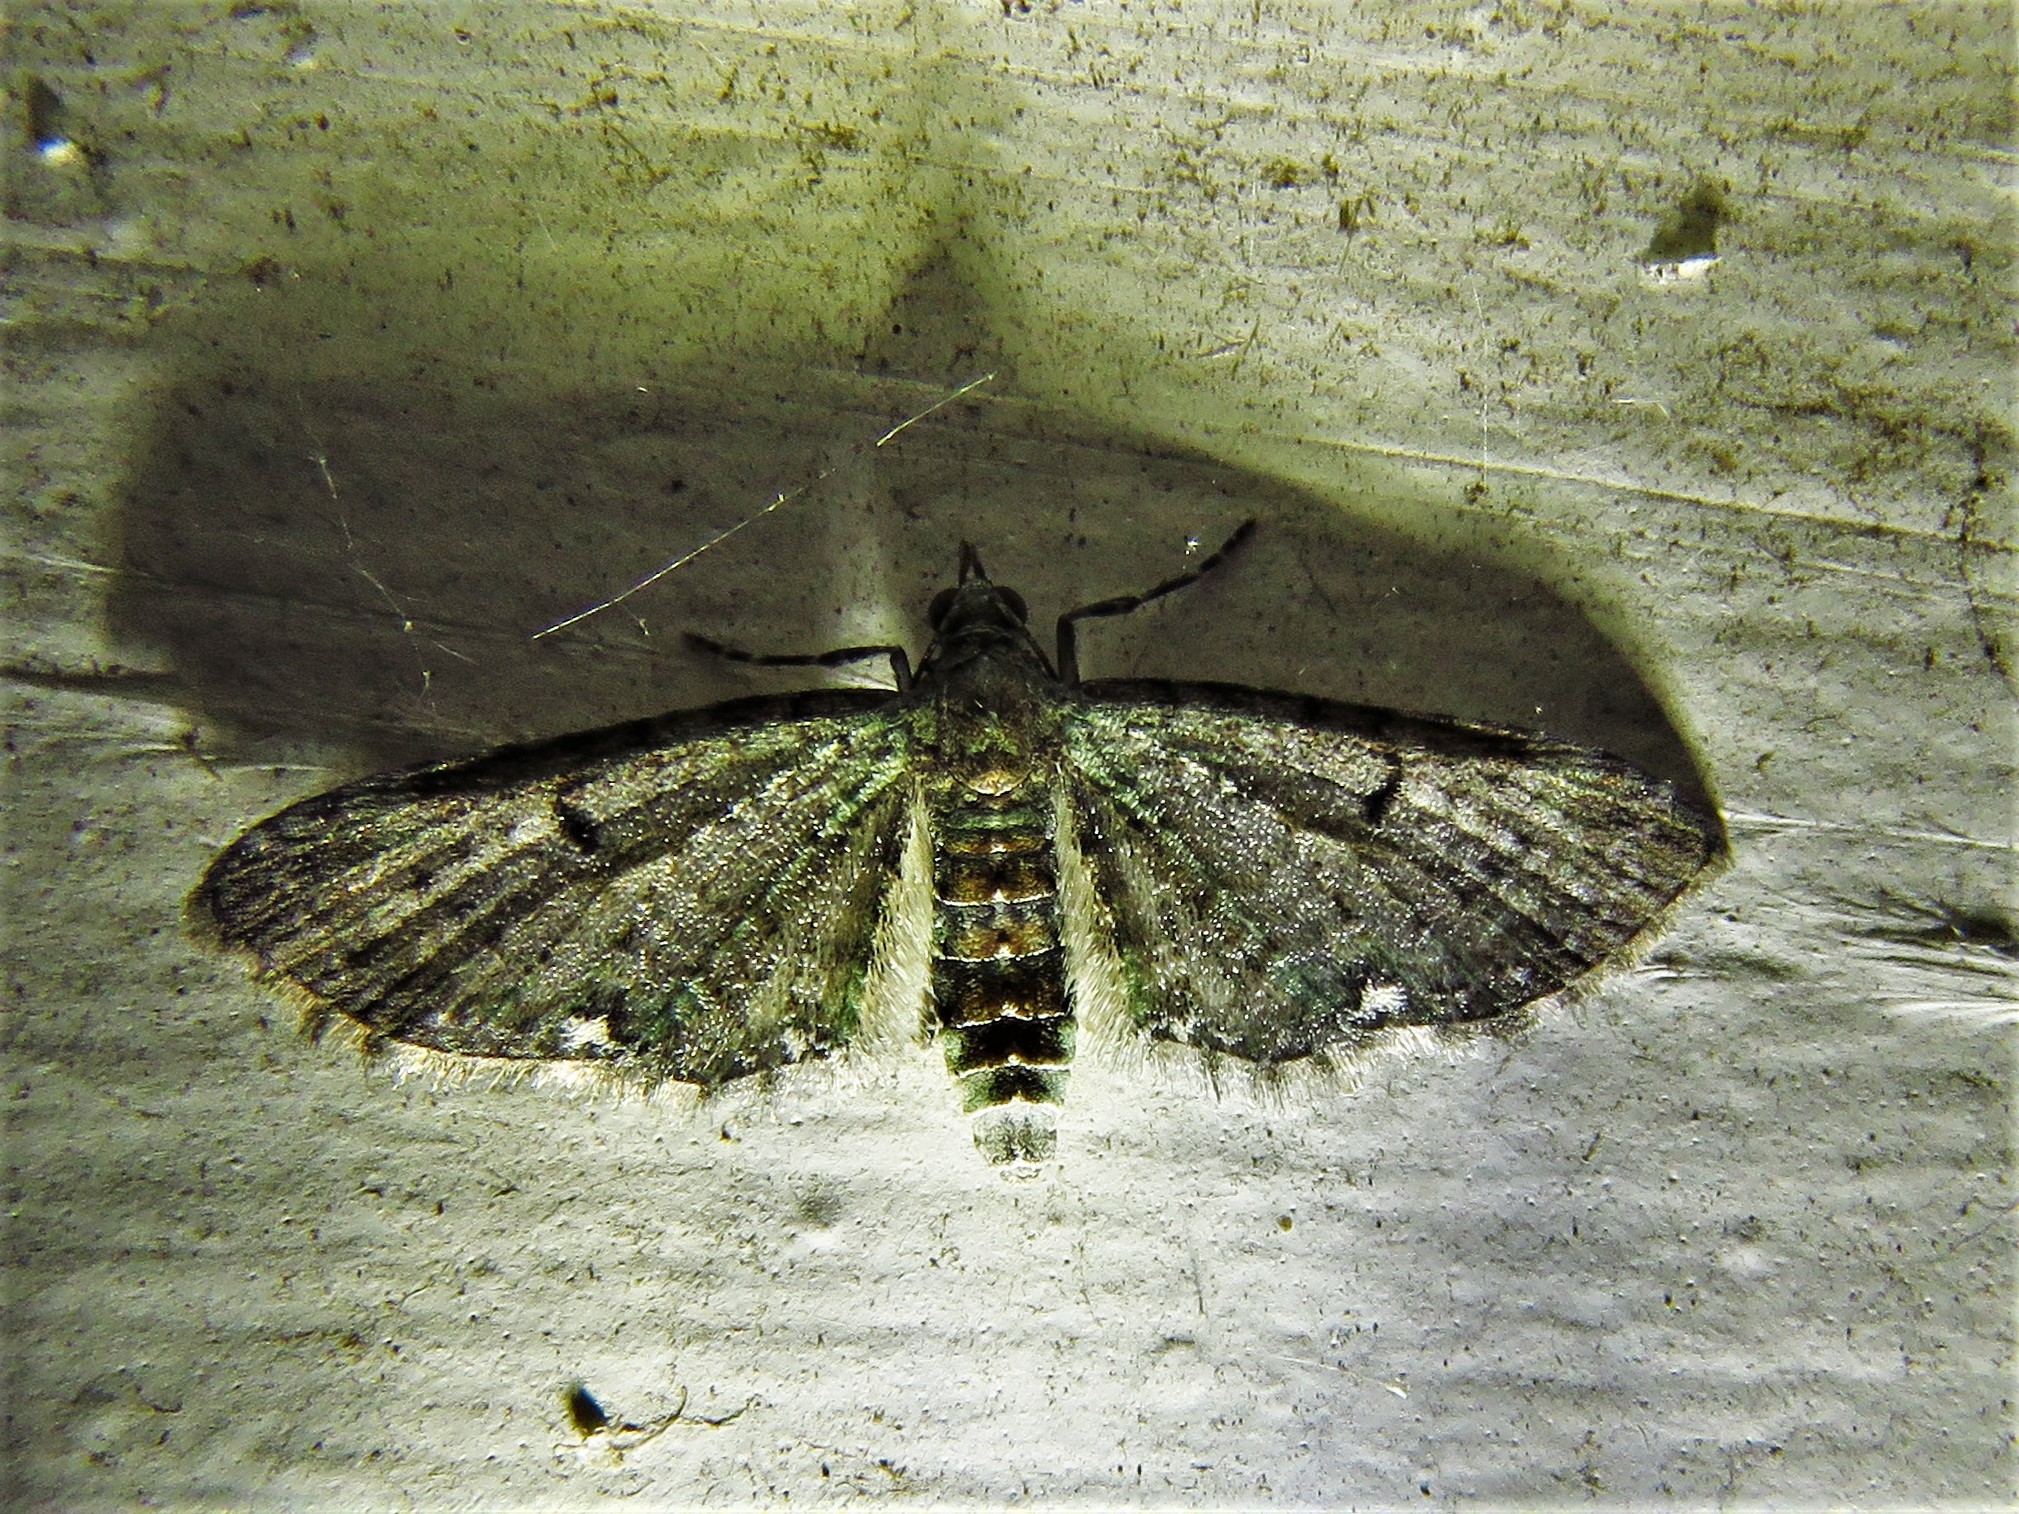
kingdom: Animalia
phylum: Arthropoda
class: Insecta
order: Lepidoptera
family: Geometridae
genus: Eupithecia
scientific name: Eupithecia miserulata
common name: Common eupithecia
